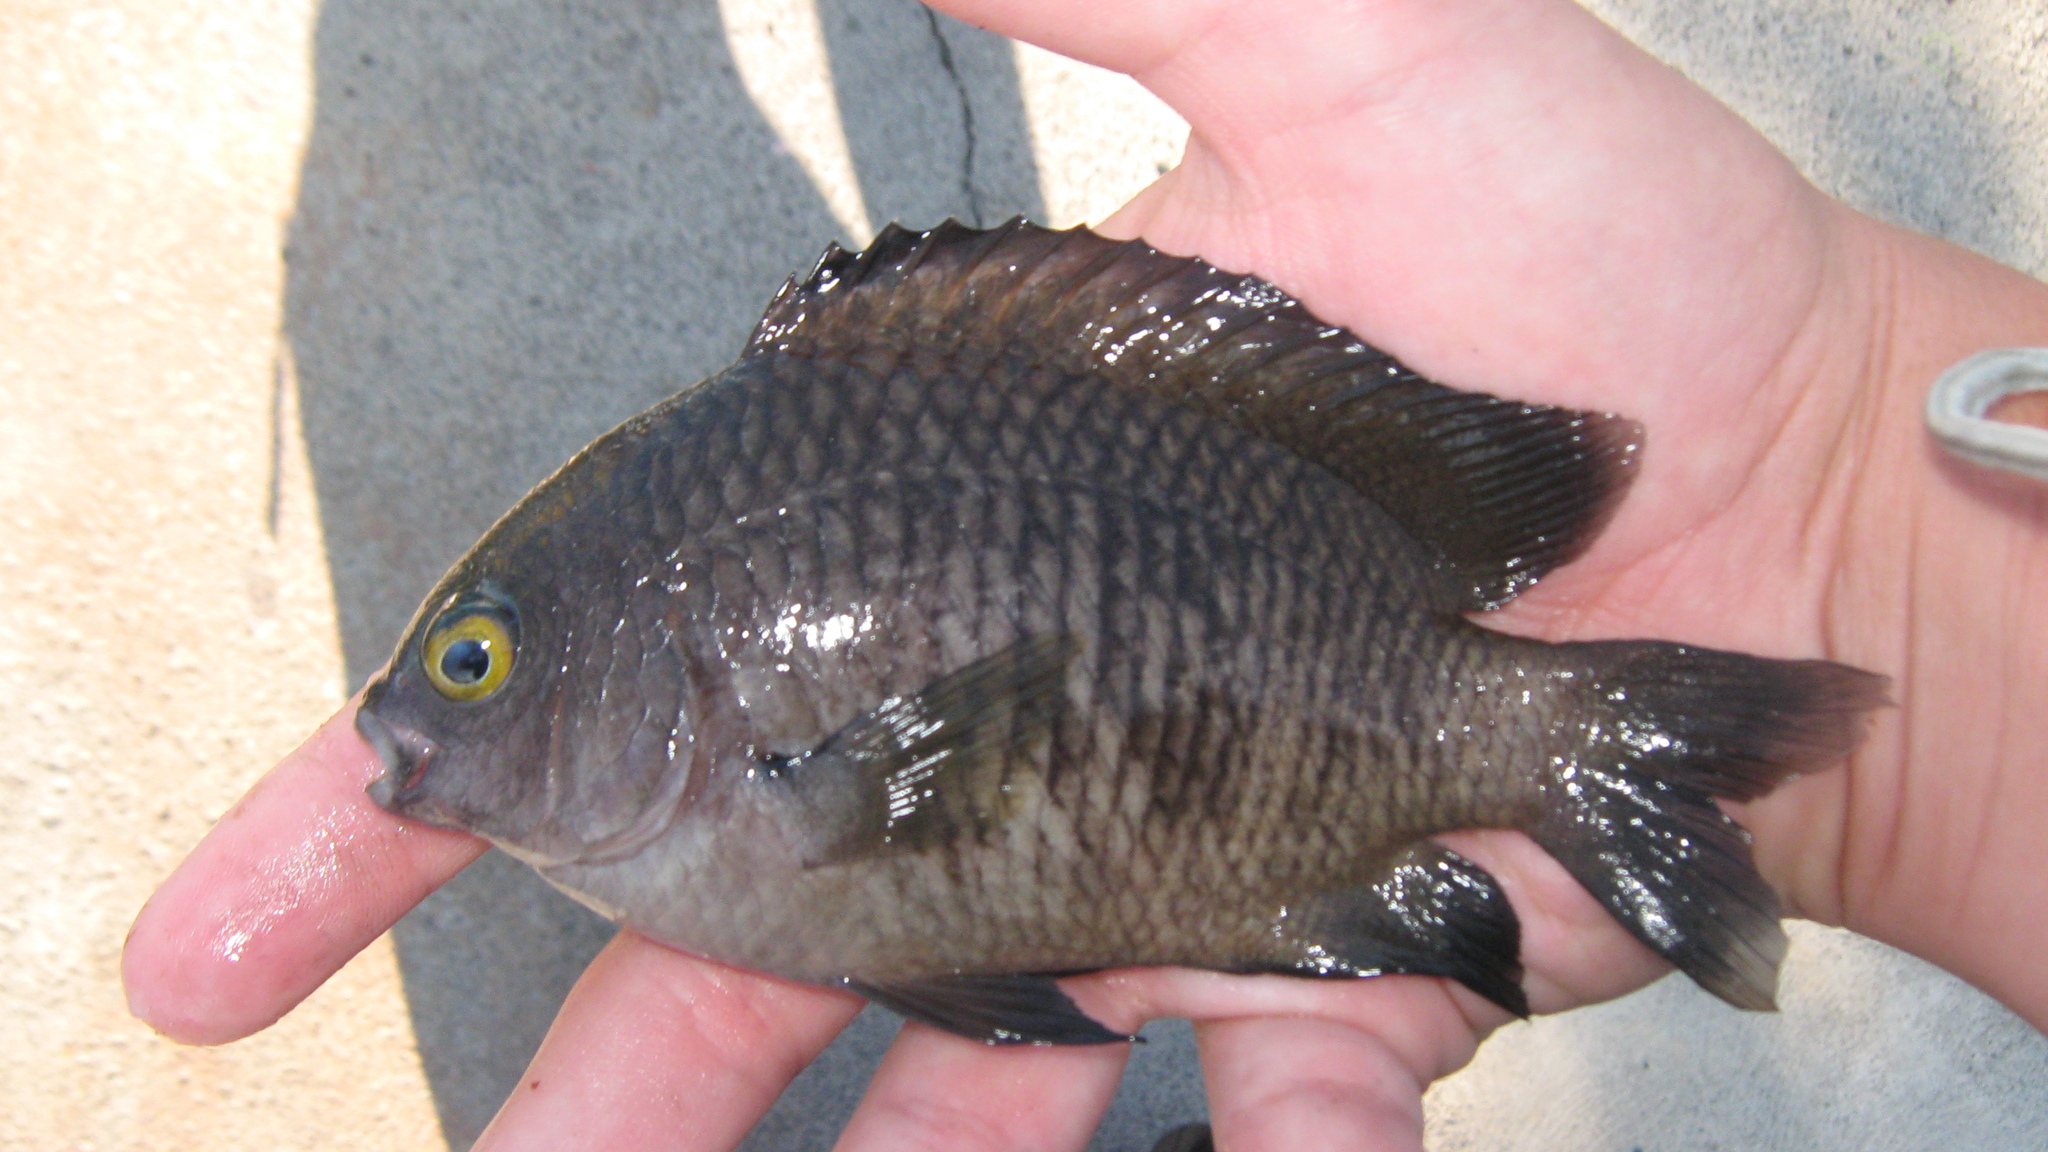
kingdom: Animalia
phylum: Chordata
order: Perciformes
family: Pomacentridae
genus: Stegastes
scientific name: Stegastes fasciolatus
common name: Pacific gregory
